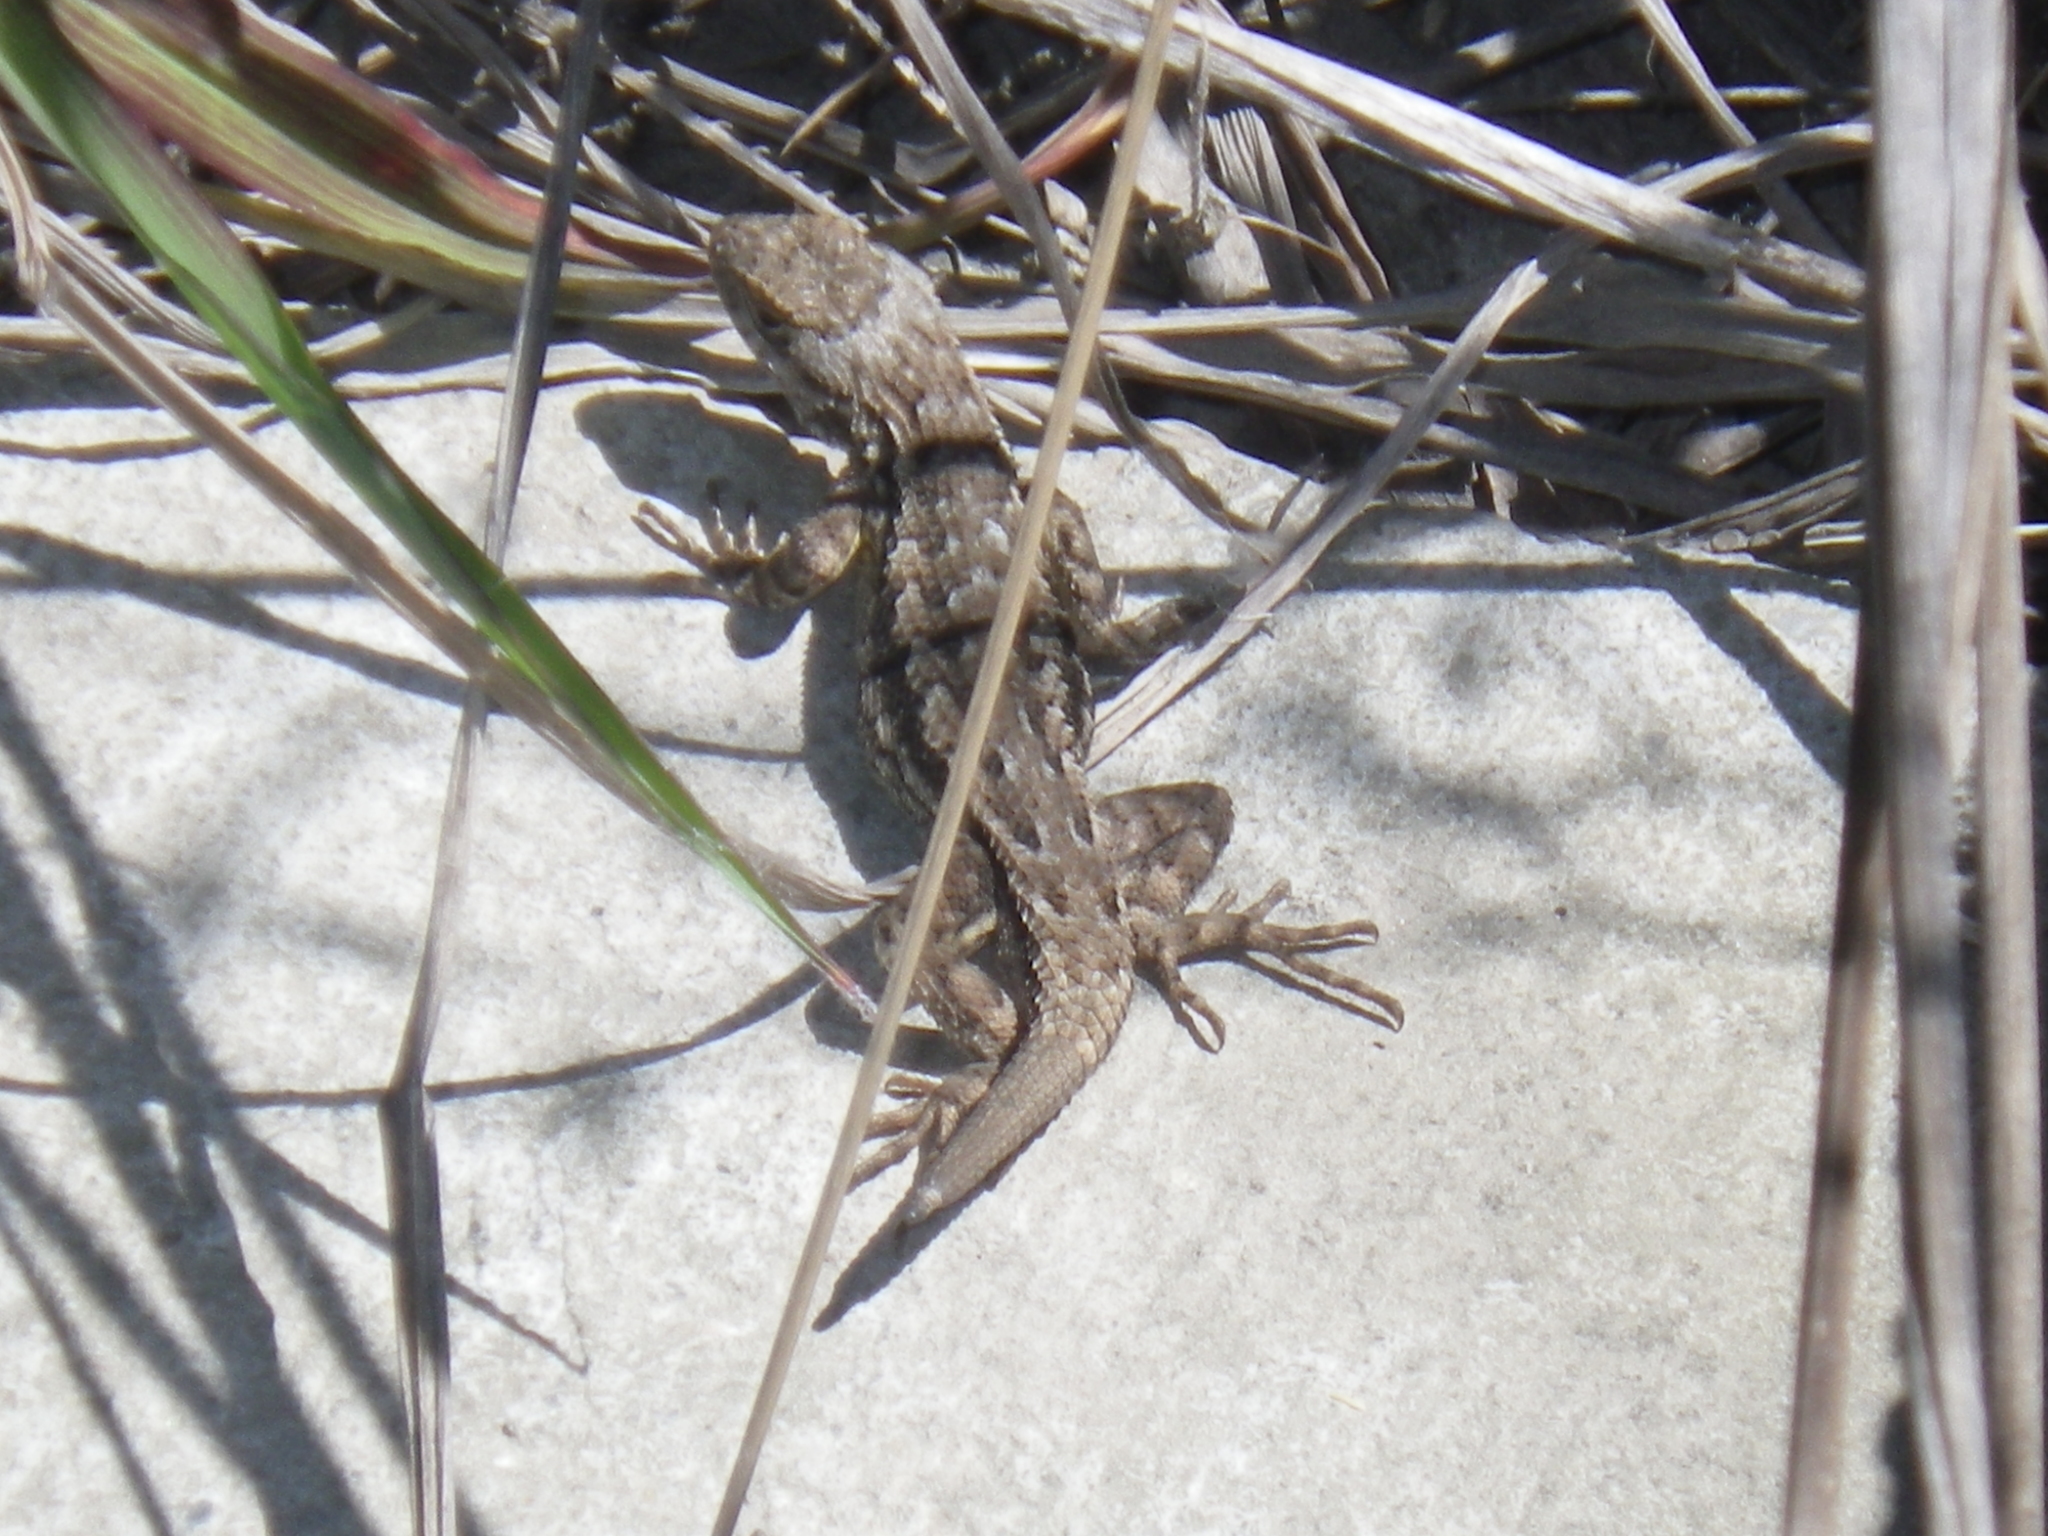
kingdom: Animalia
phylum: Chordata
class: Squamata
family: Phrynosomatidae
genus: Sceloporus
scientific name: Sceloporus occidentalis
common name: Western fence lizard
